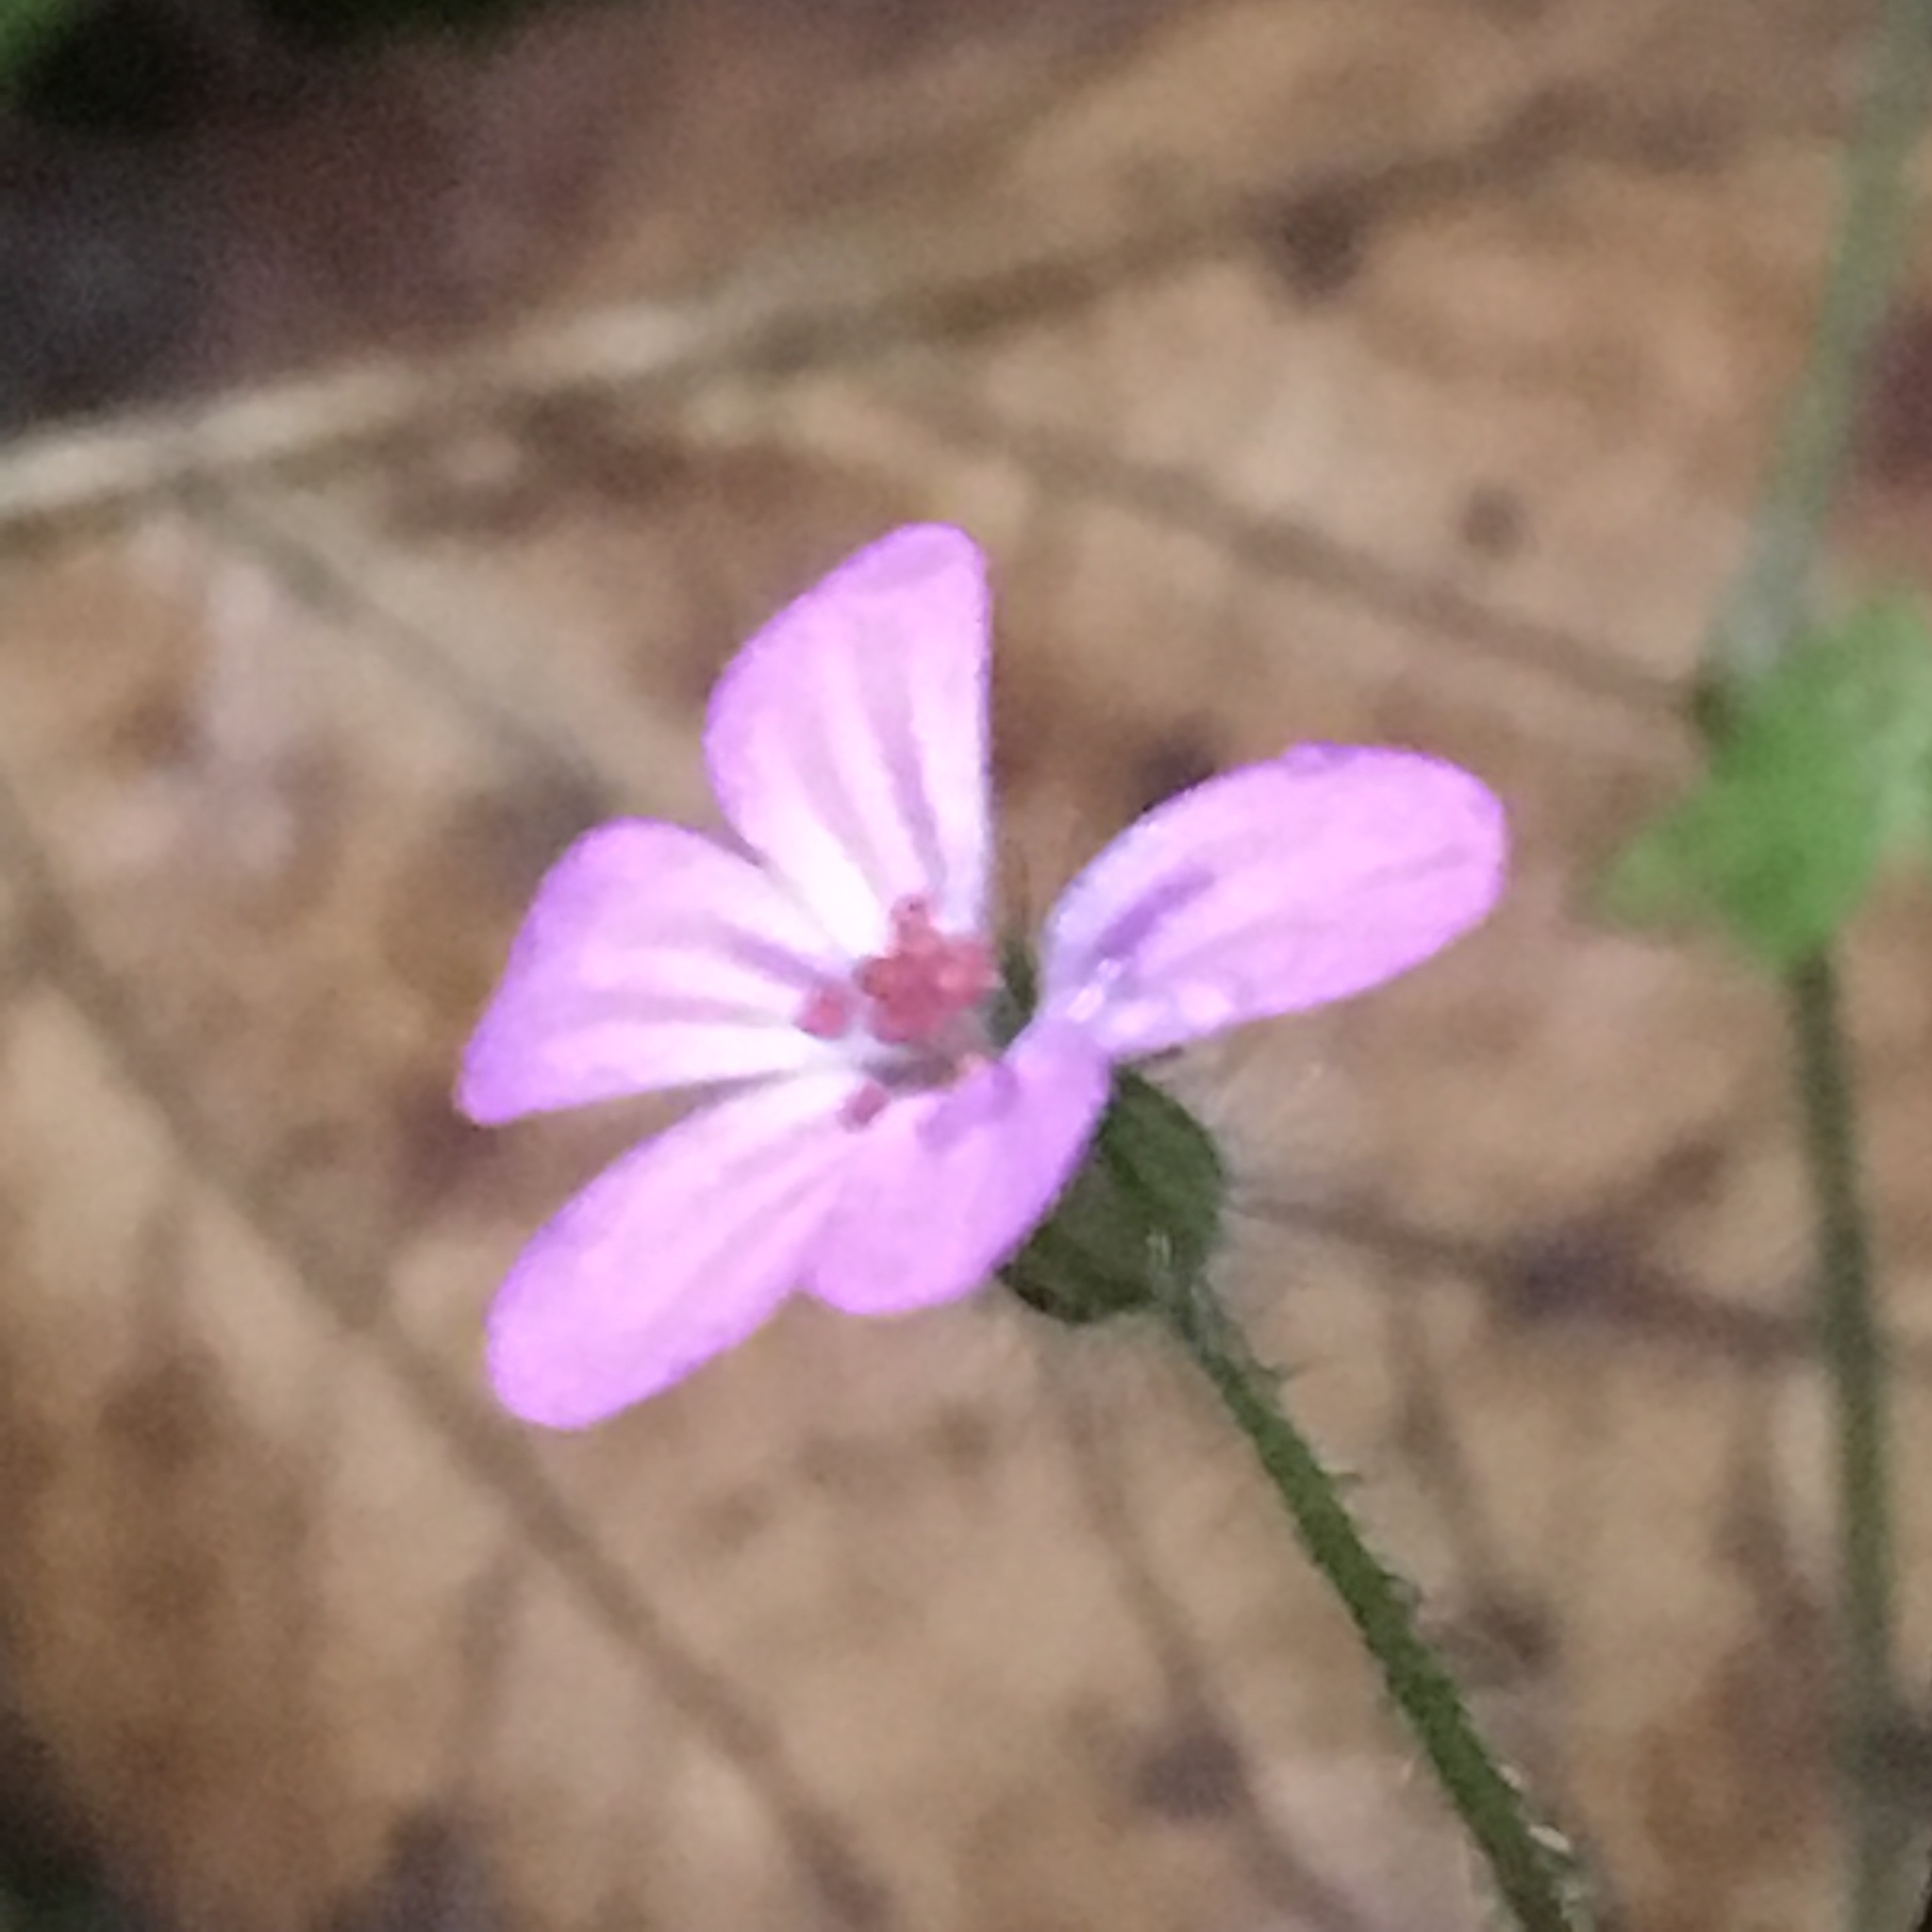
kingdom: Plantae
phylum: Tracheophyta
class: Magnoliopsida
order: Geraniales
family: Geraniaceae
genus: Geranium
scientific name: Geranium robertianum
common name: Herb-robert
